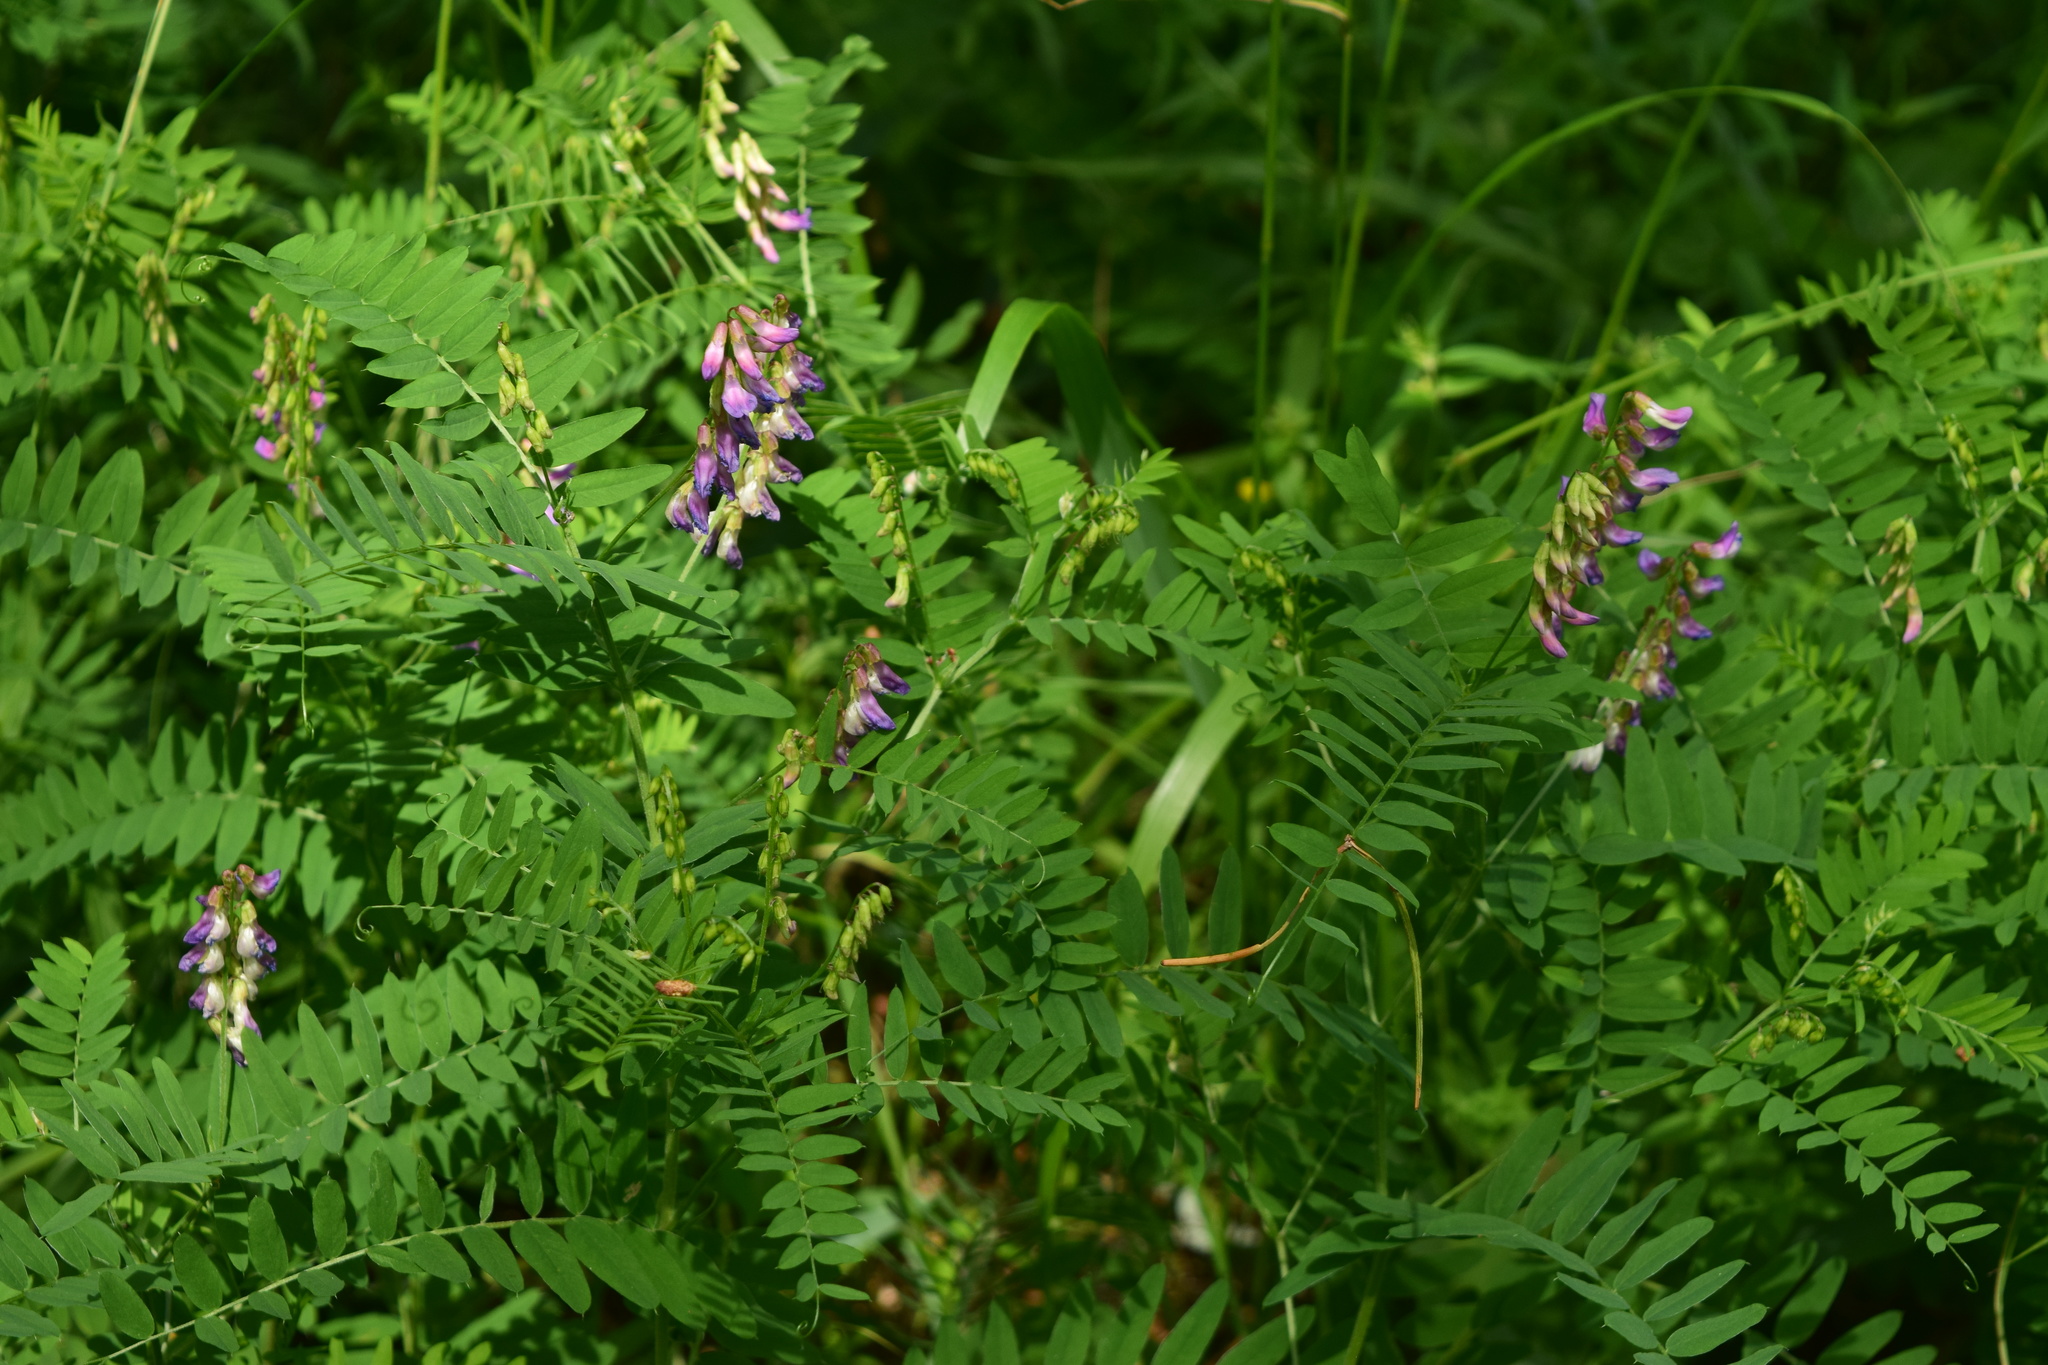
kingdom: Plantae
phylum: Tracheophyta
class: Magnoliopsida
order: Fabales
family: Fabaceae
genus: Vicia
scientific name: Vicia cassubica
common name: Danzig vetch
